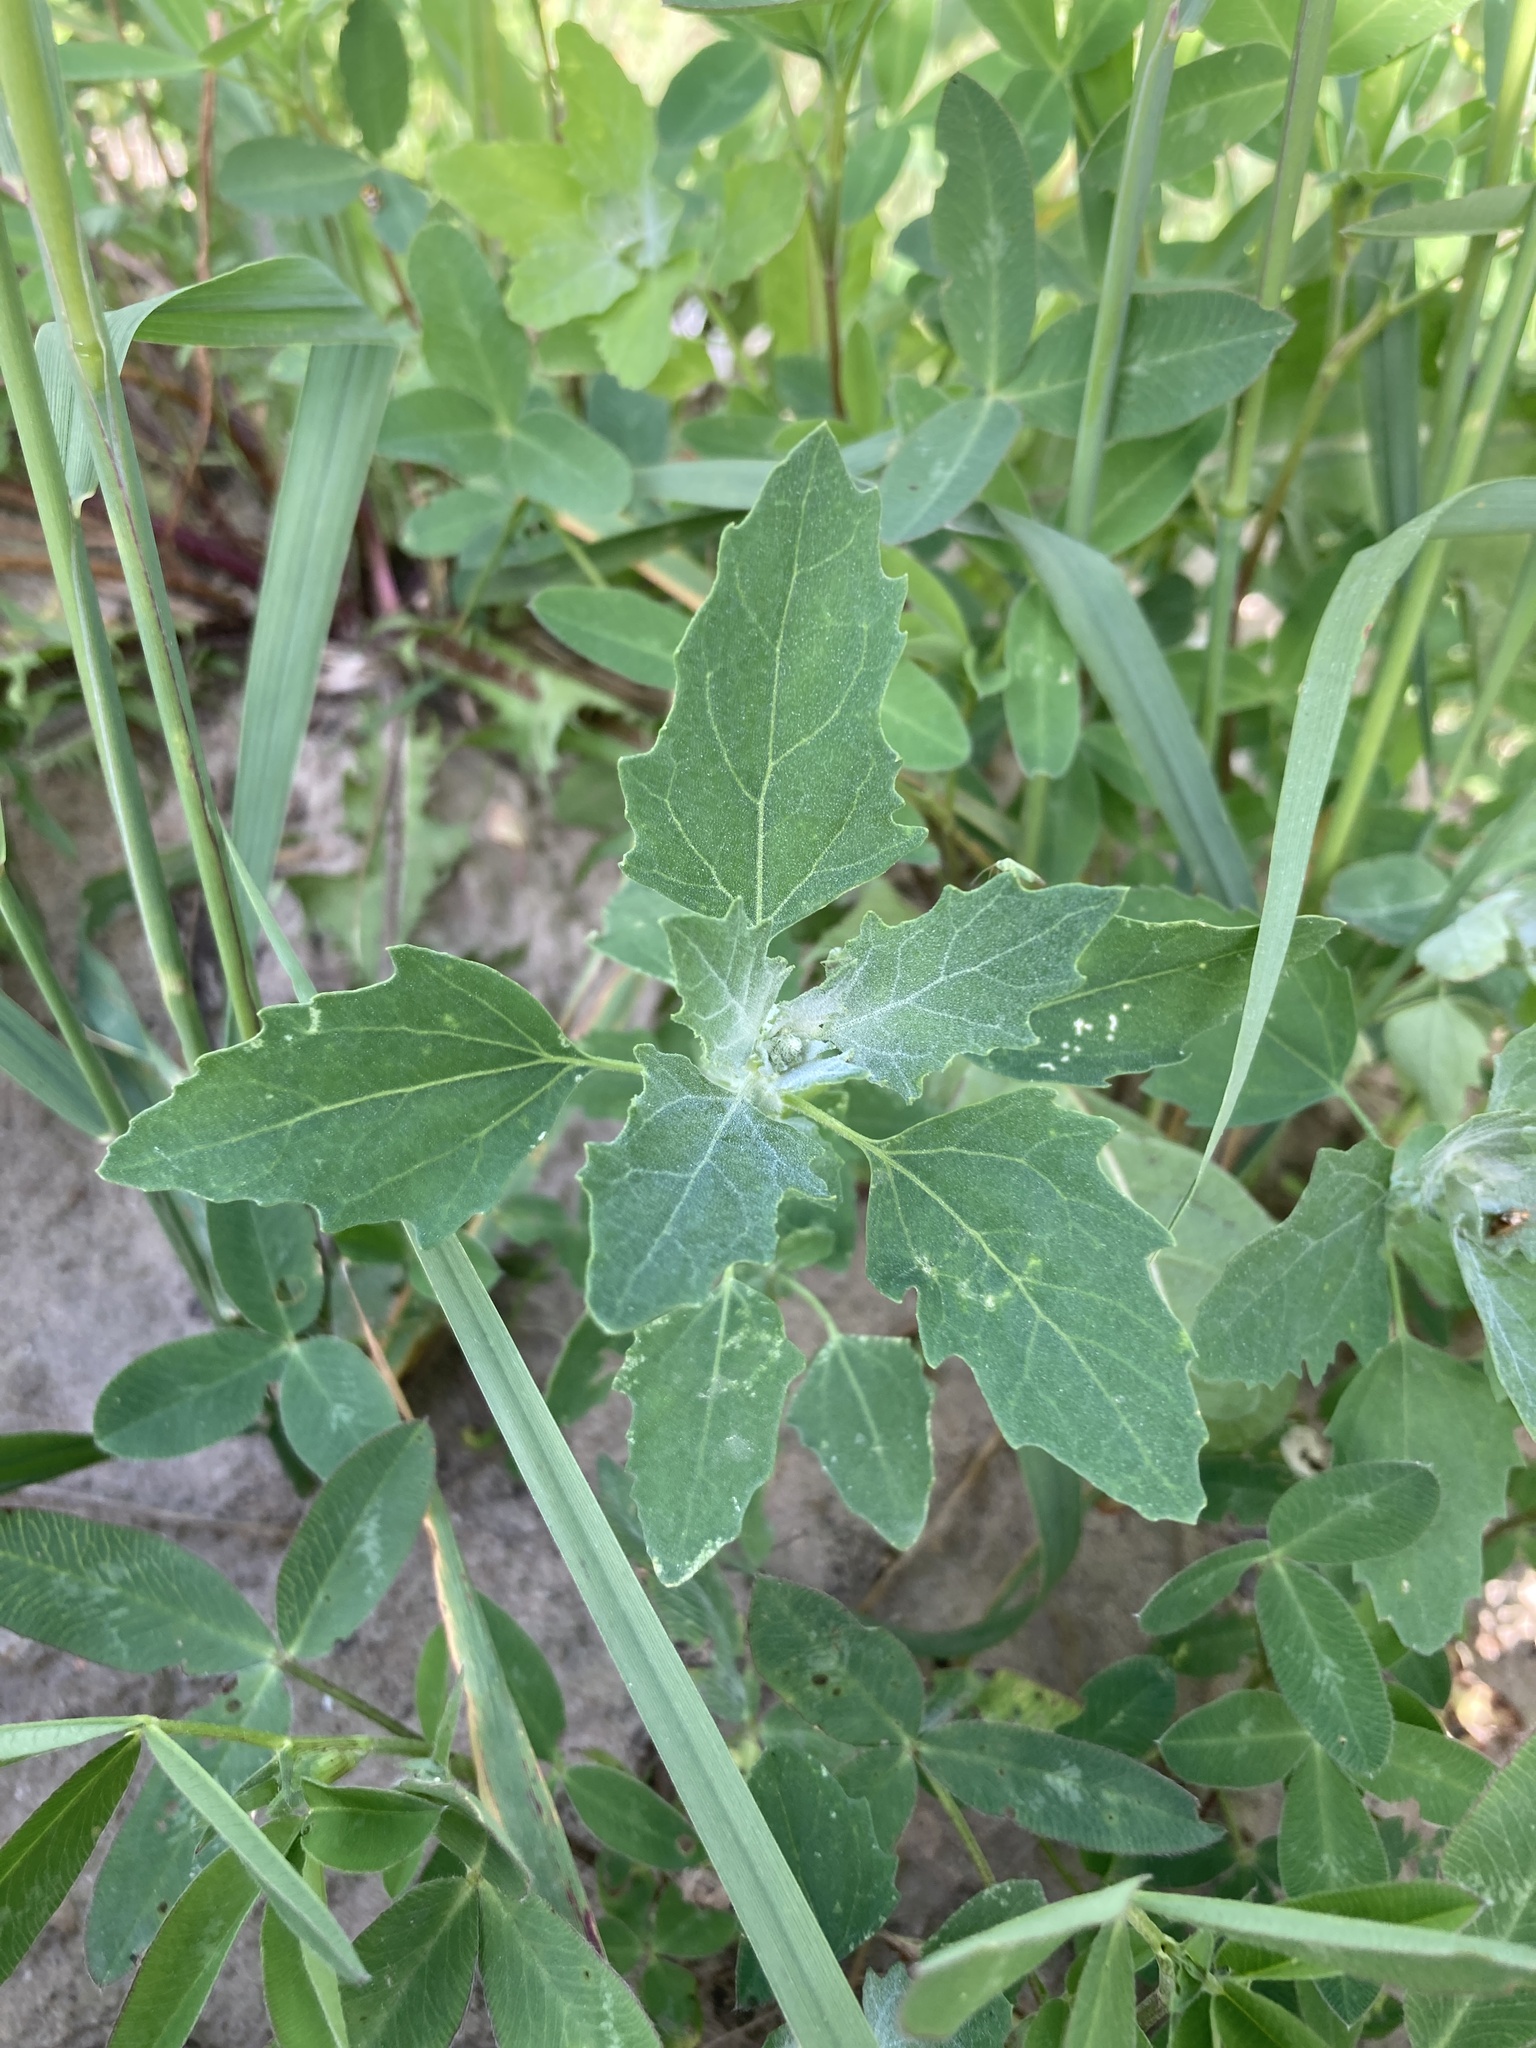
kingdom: Plantae
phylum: Tracheophyta
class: Magnoliopsida
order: Caryophyllales
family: Amaranthaceae
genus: Chenopodium
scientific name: Chenopodium album
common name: Fat-hen
